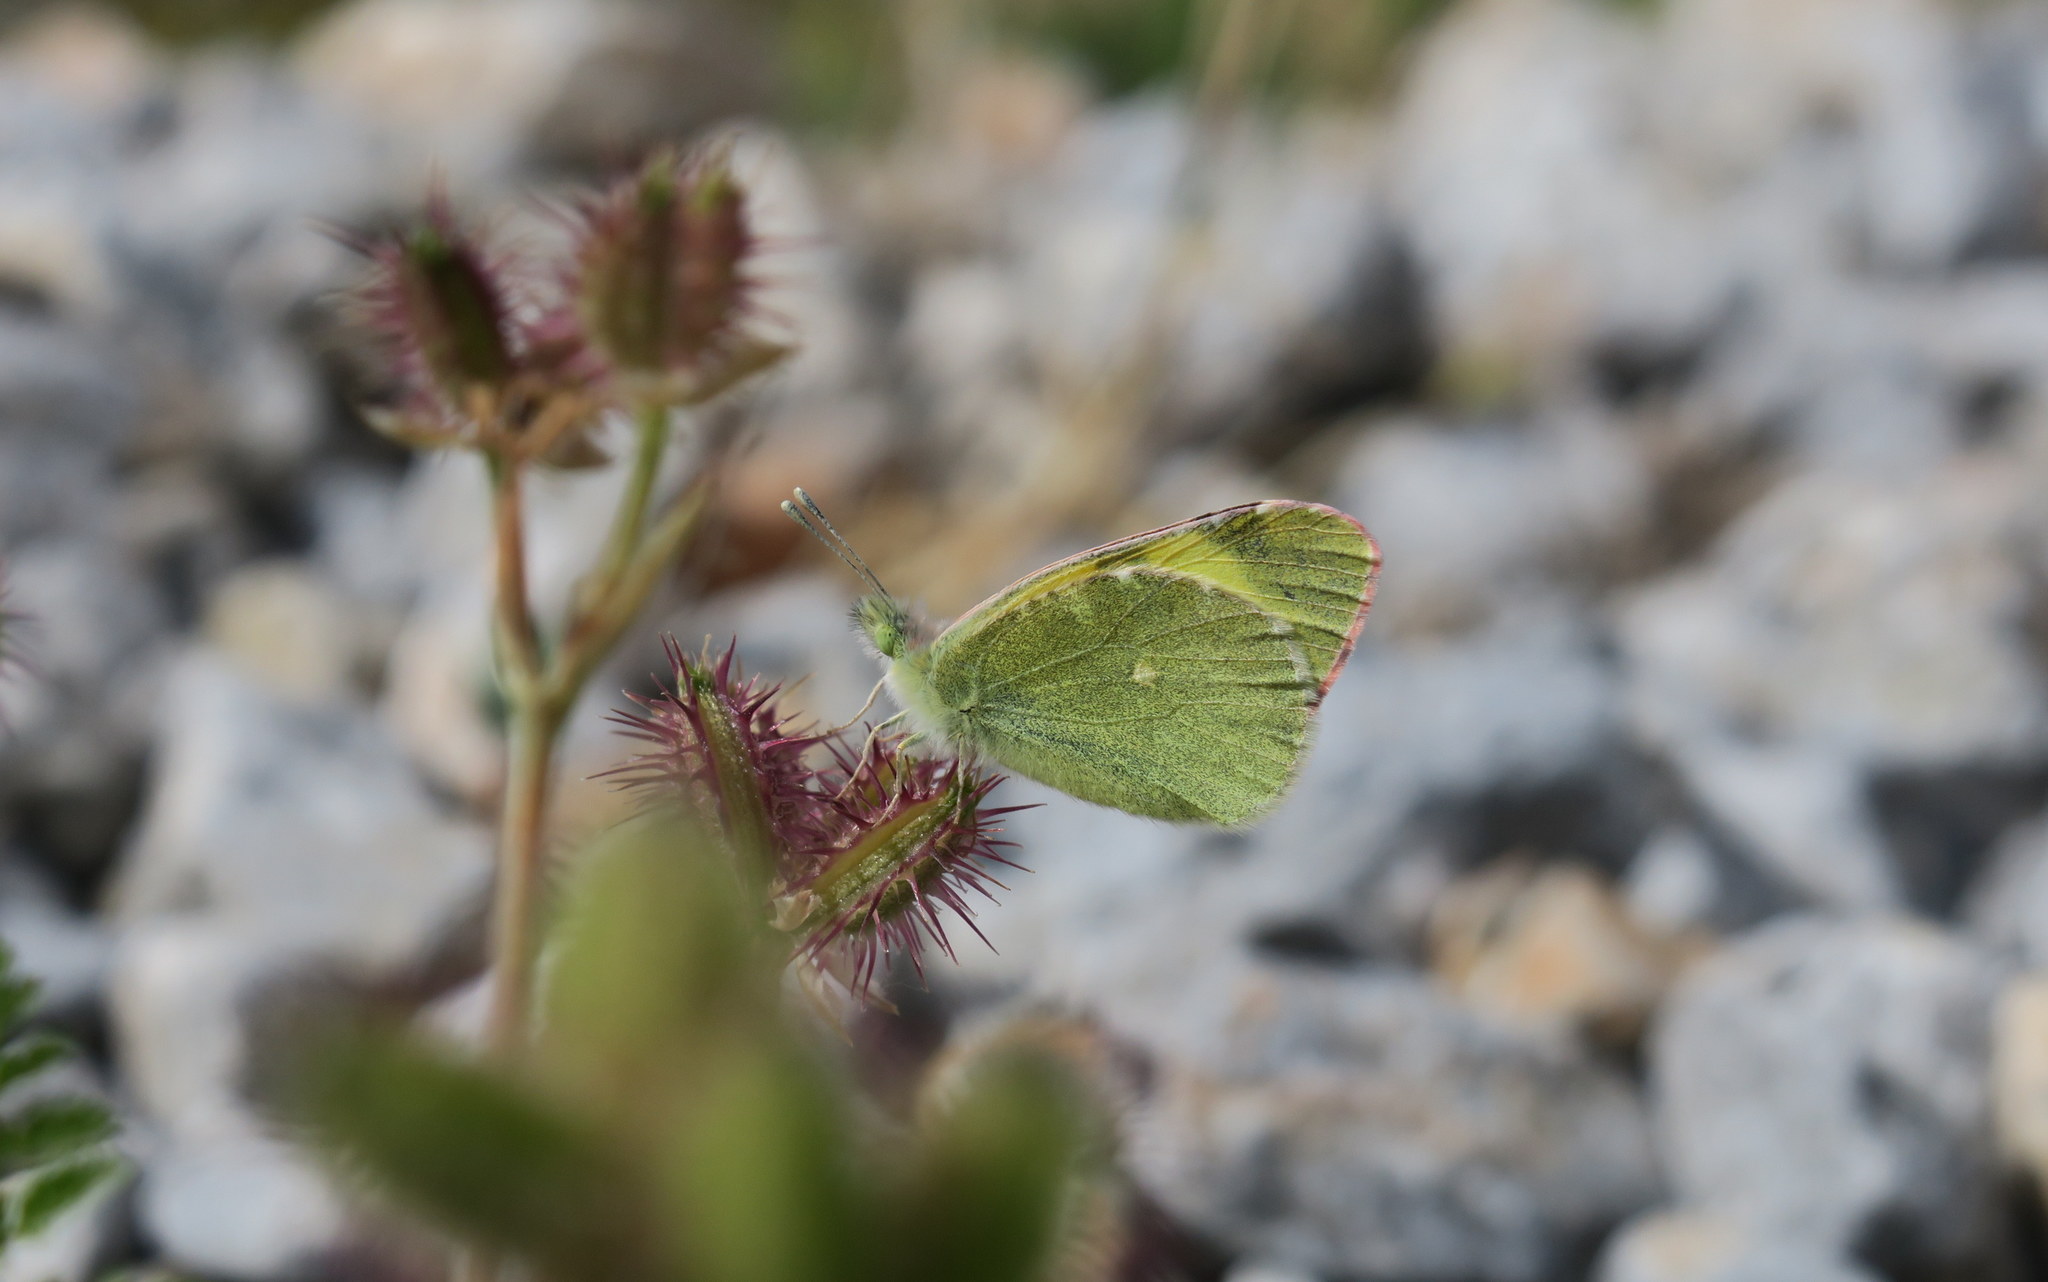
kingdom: Animalia
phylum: Arthropoda
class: Insecta
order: Lepidoptera
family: Pieridae
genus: Elphinstonia
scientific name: Elphinstonia penia
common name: Eastern greenish black-tip
